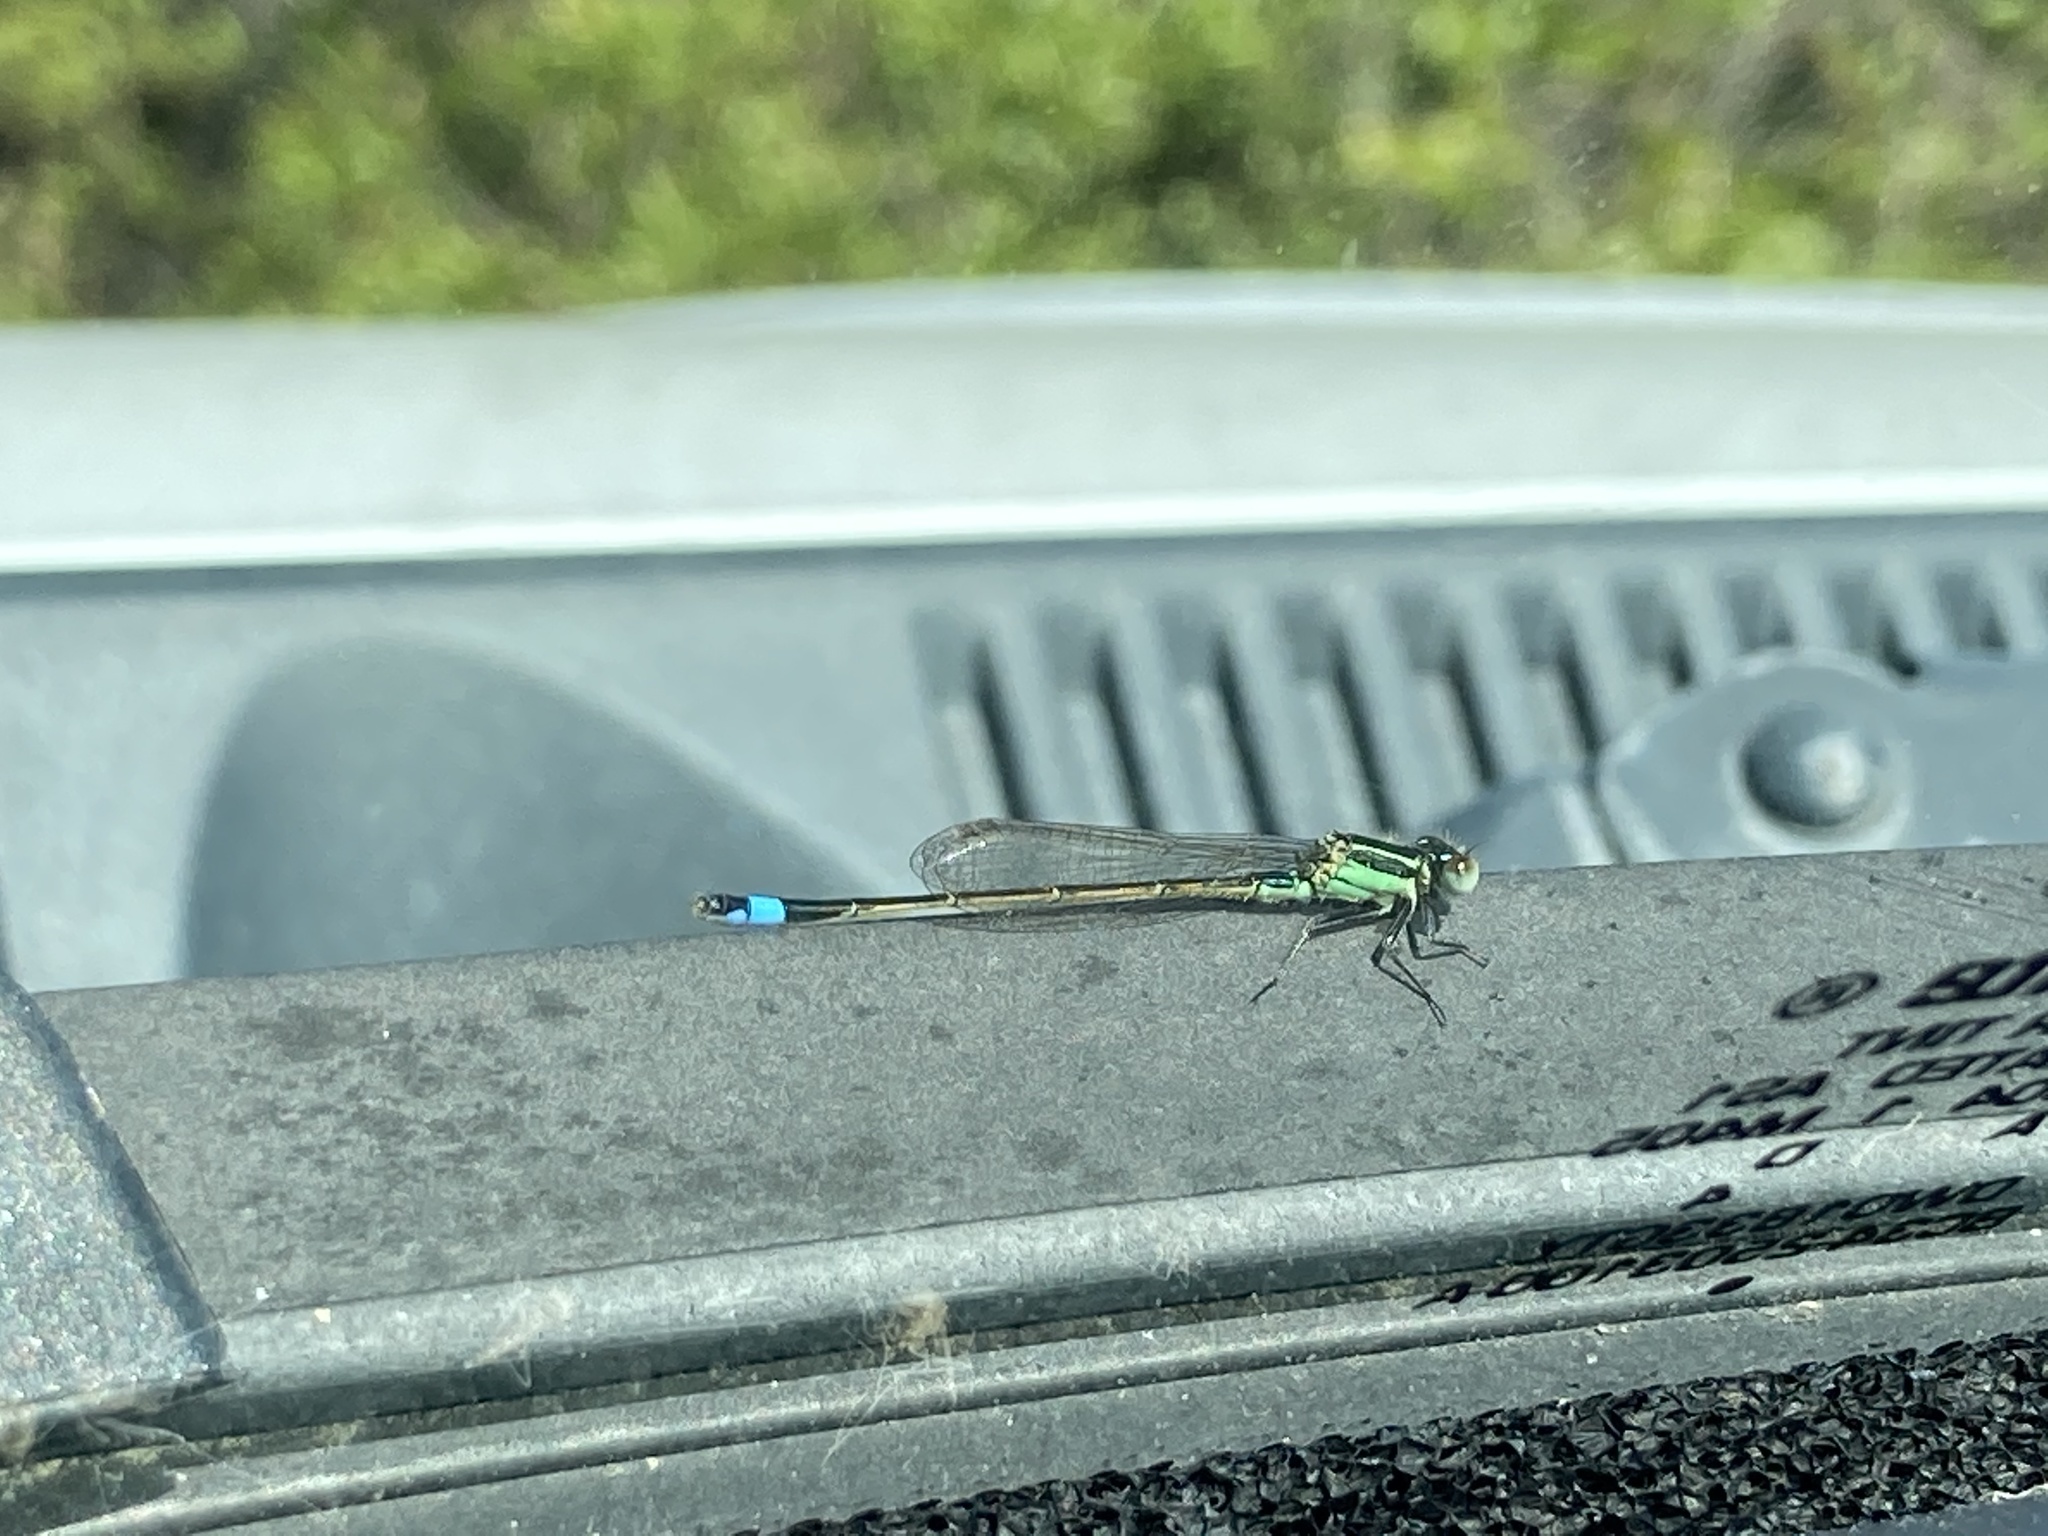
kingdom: Animalia
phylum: Arthropoda
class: Insecta
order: Odonata
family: Coenagrionidae
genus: Ischnura
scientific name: Ischnura ramburii
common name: Rambur's forktail
